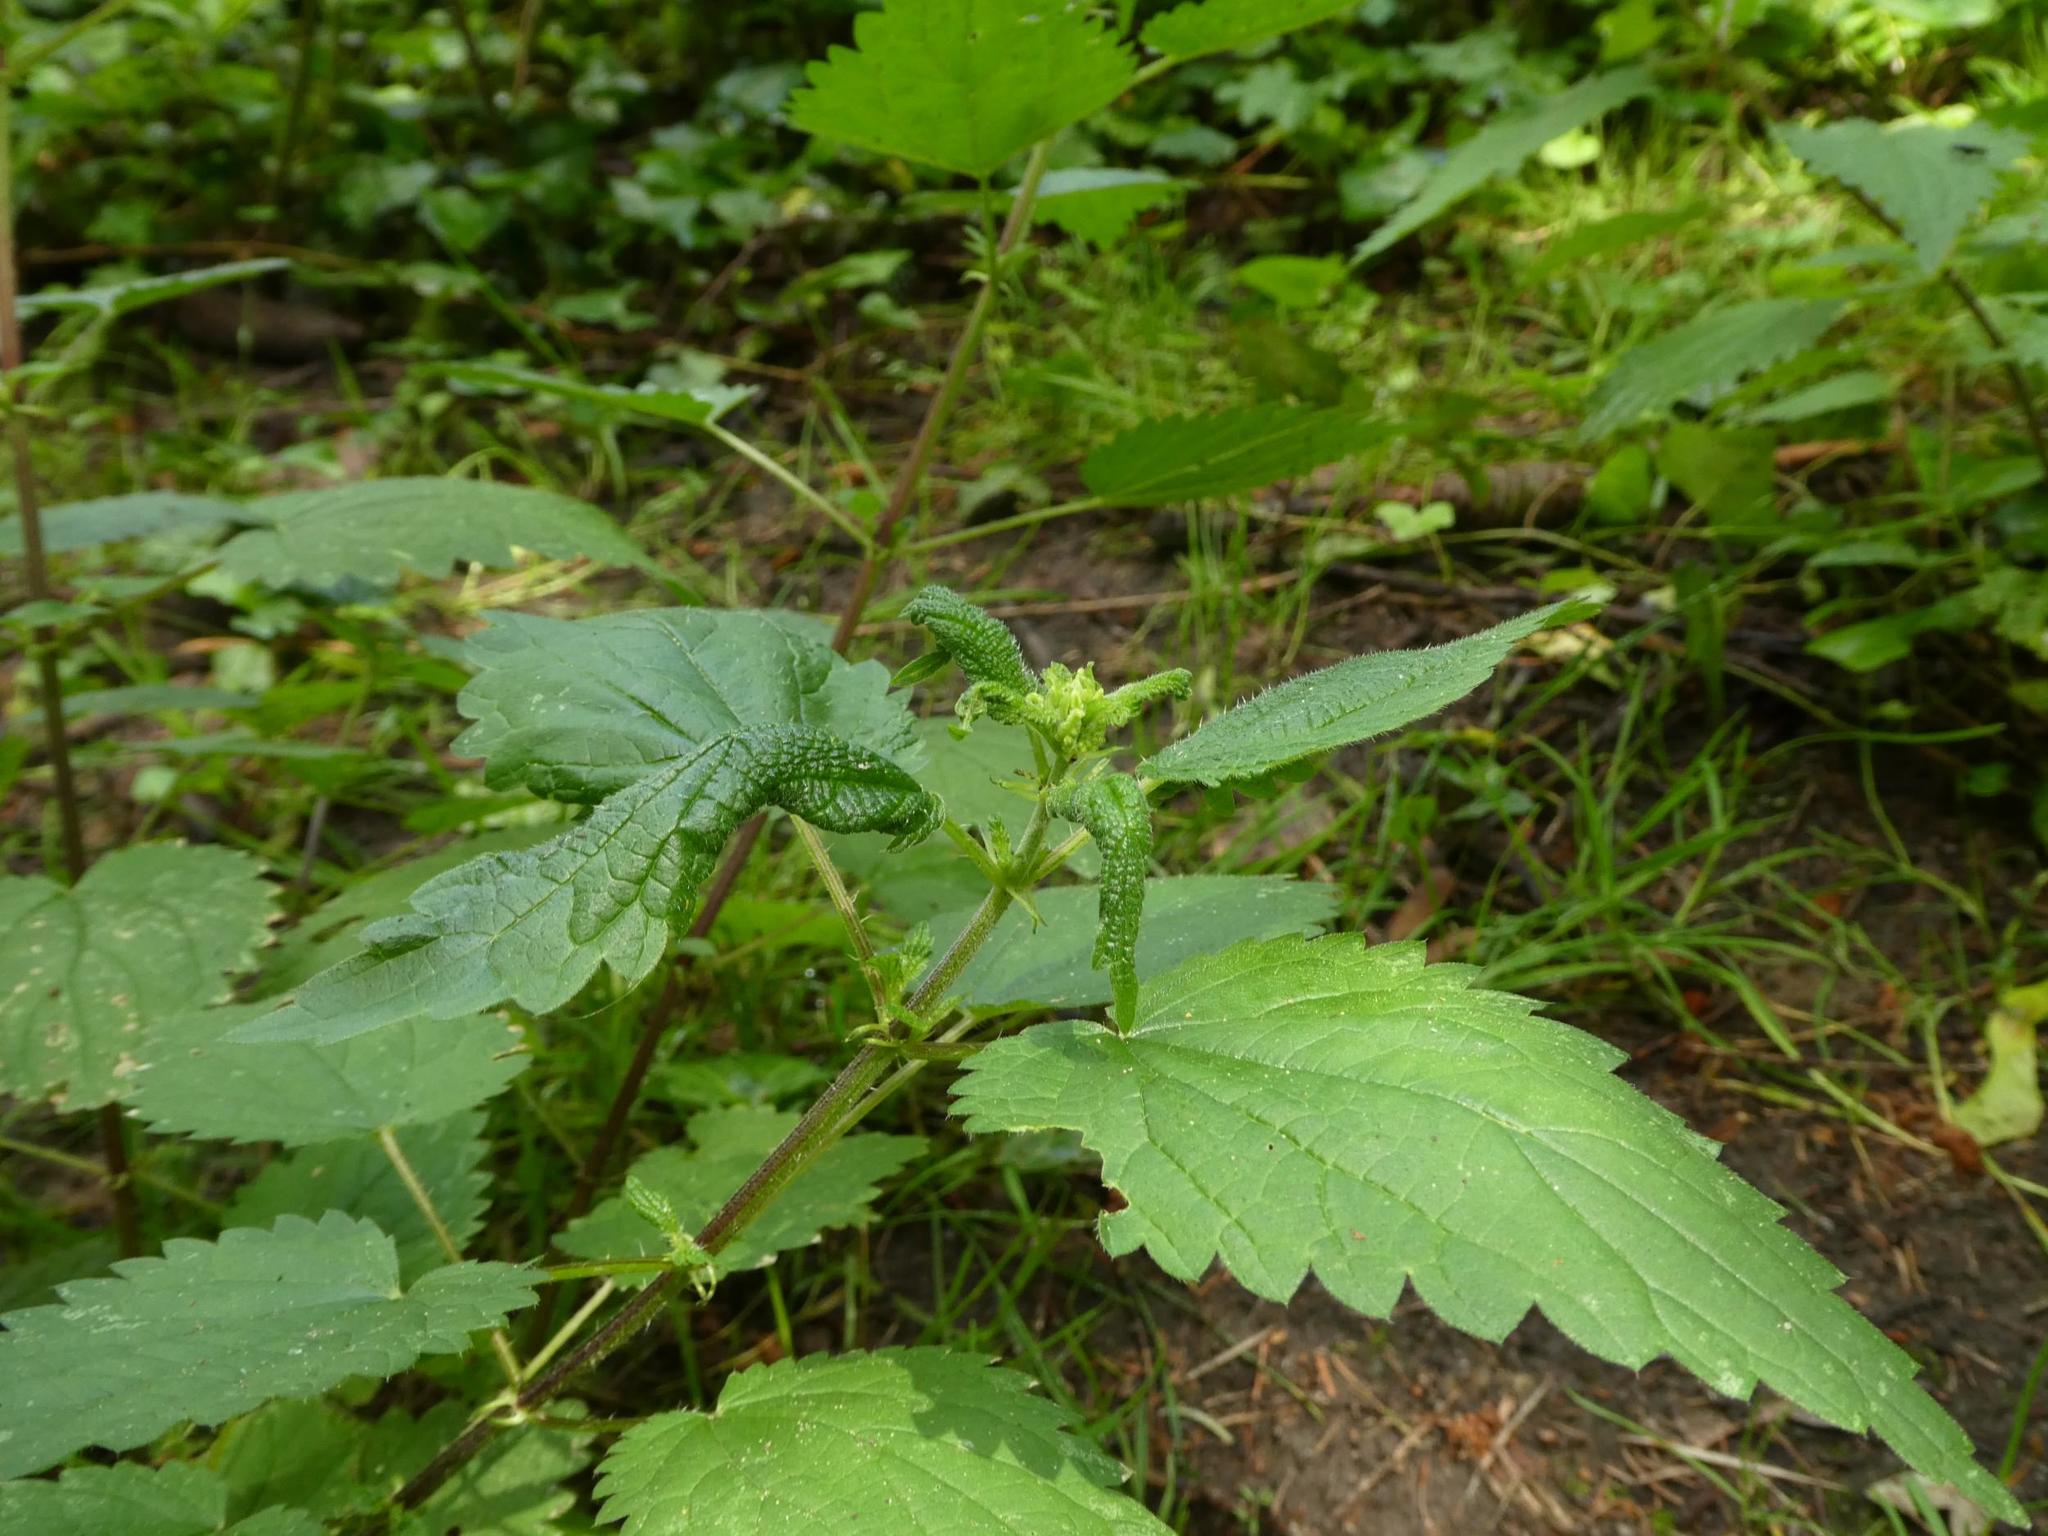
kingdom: Plantae
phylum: Tracheophyta
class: Magnoliopsida
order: Rosales
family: Urticaceae
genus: Urtica
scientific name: Urtica dioica
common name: Common nettle
